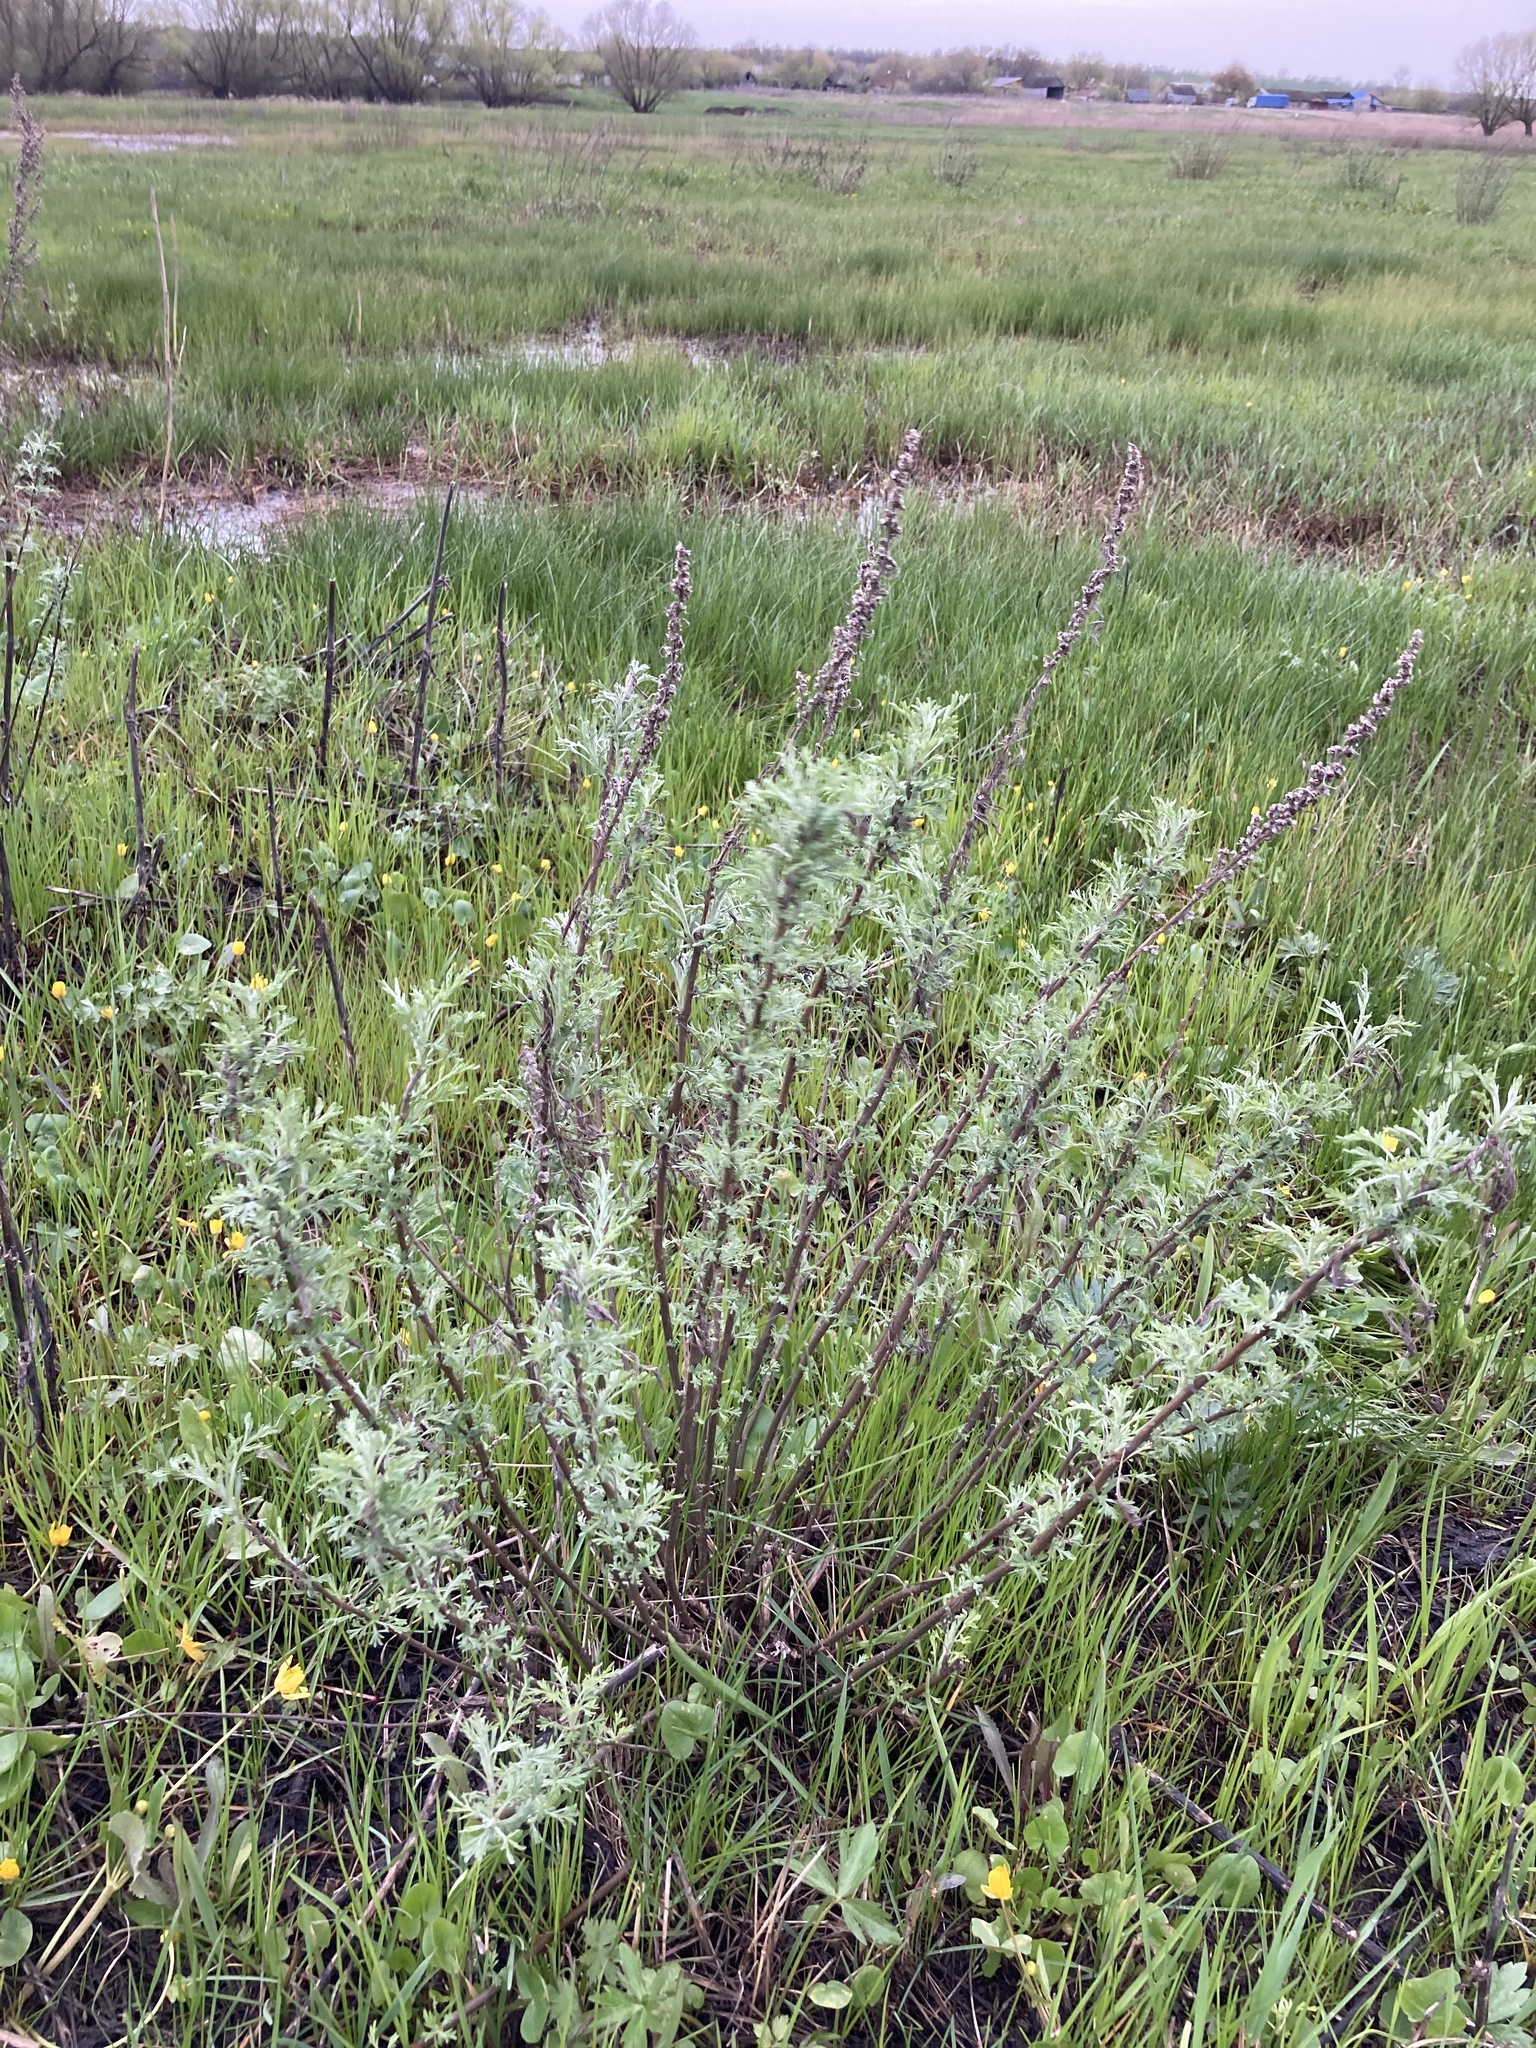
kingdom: Plantae
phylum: Tracheophyta
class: Magnoliopsida
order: Asterales
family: Asteraceae
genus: Artemisia
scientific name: Artemisia abrotanum
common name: Southernwood
